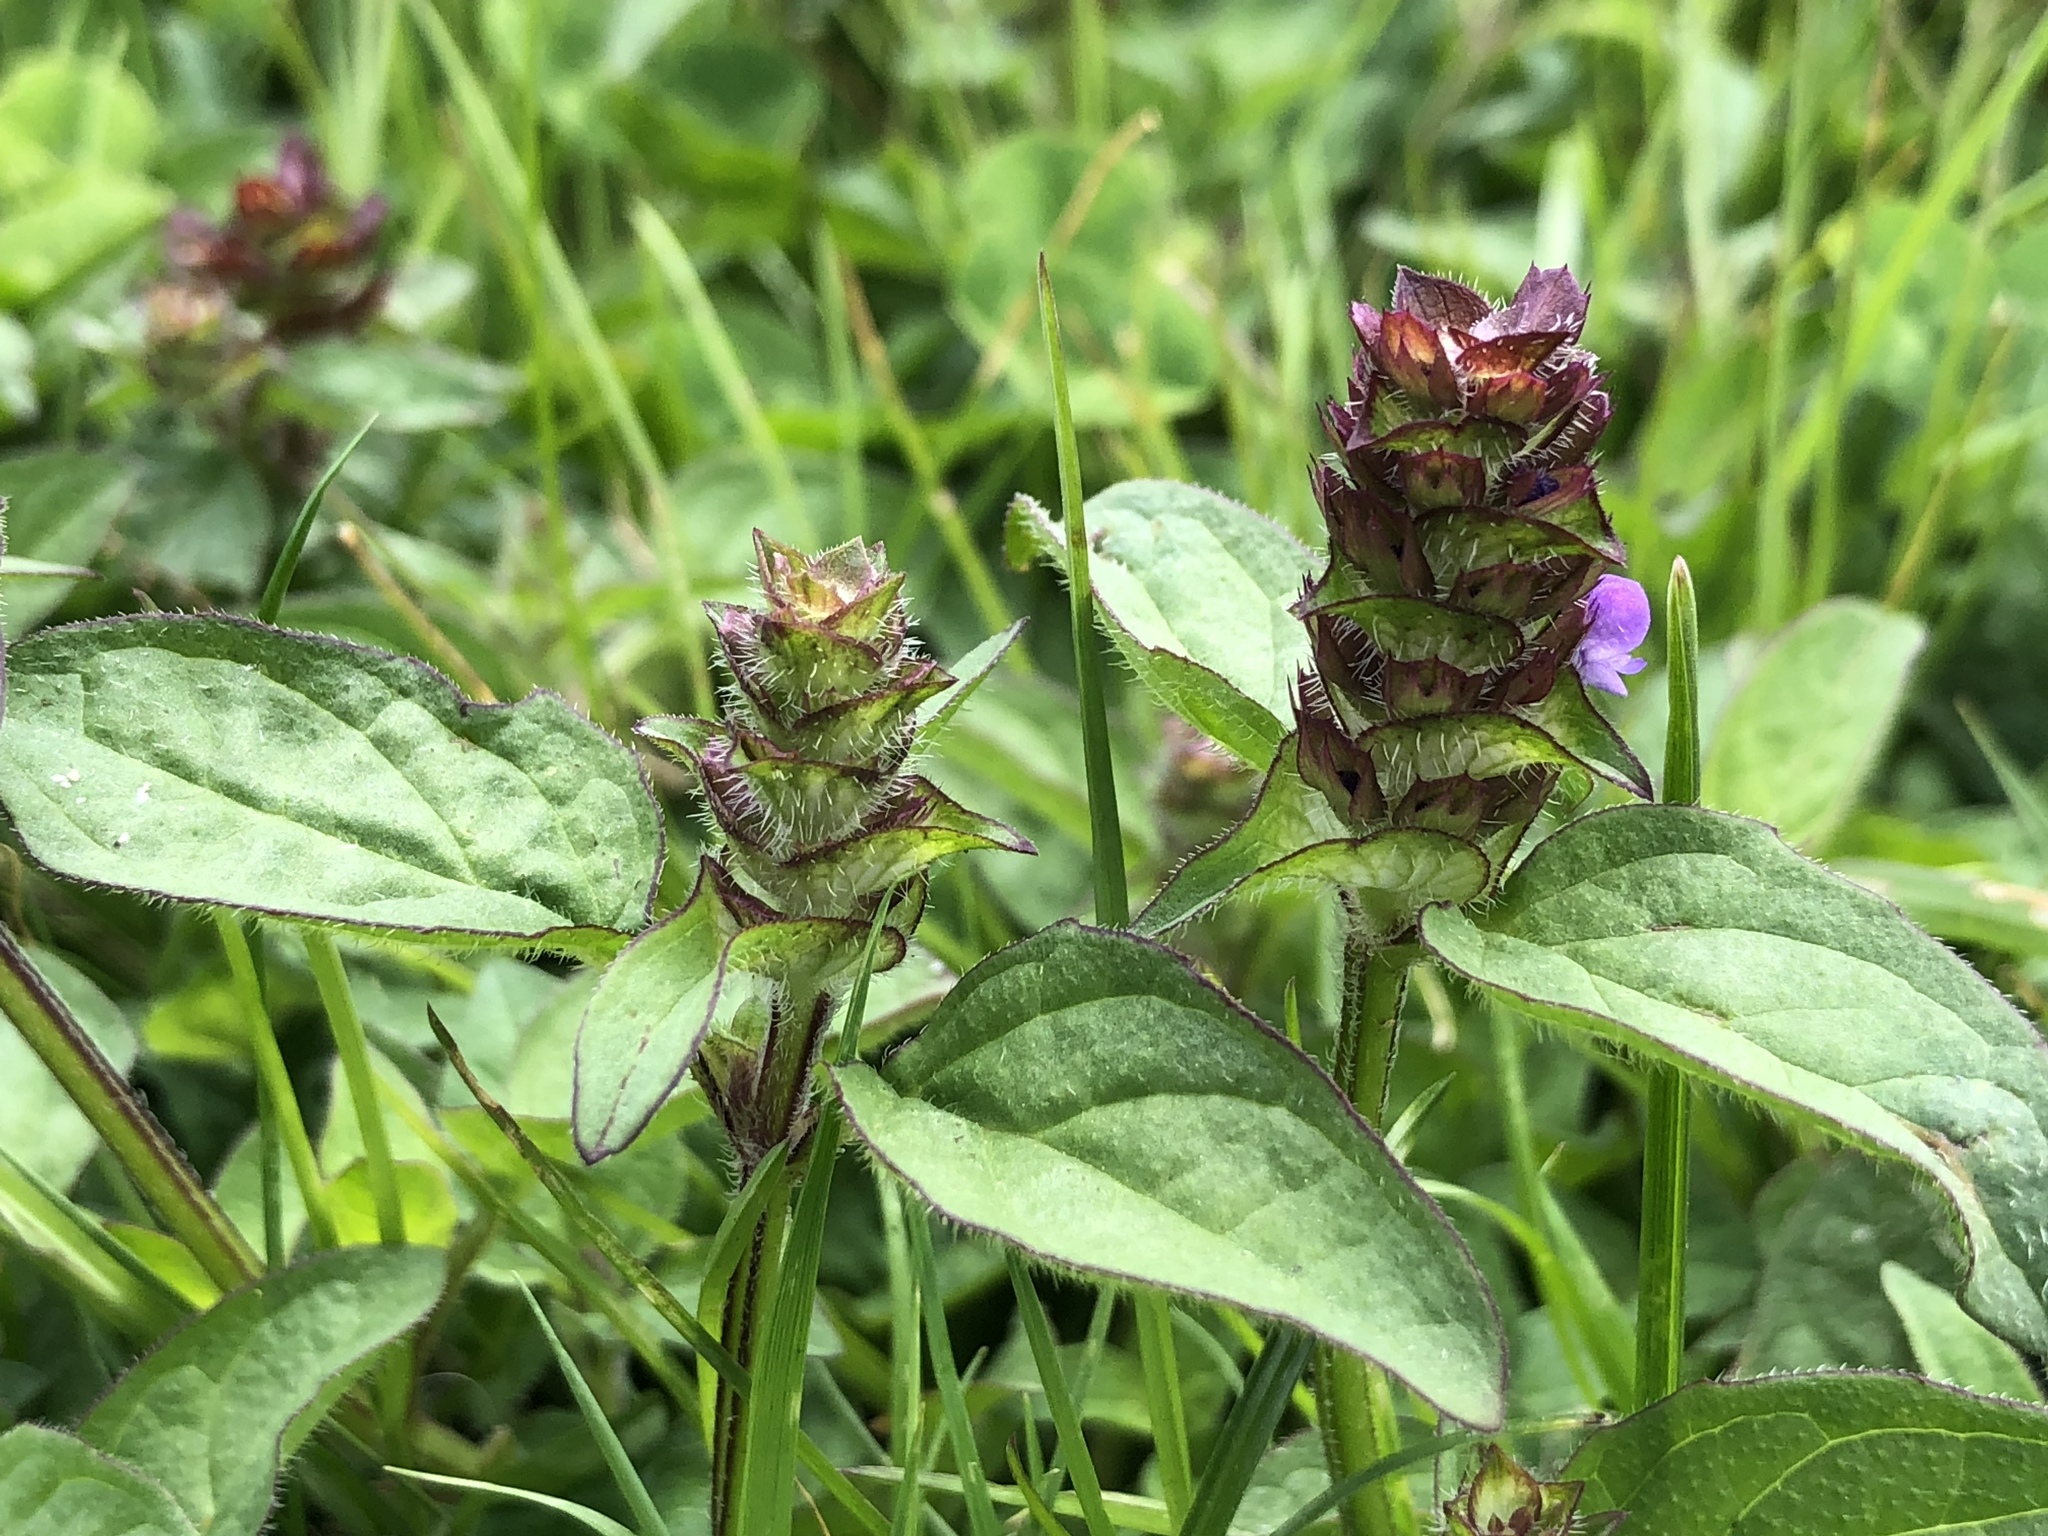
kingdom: Plantae
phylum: Tracheophyta
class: Magnoliopsida
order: Lamiales
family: Lamiaceae
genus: Prunella
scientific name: Prunella vulgaris
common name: Heal-all
